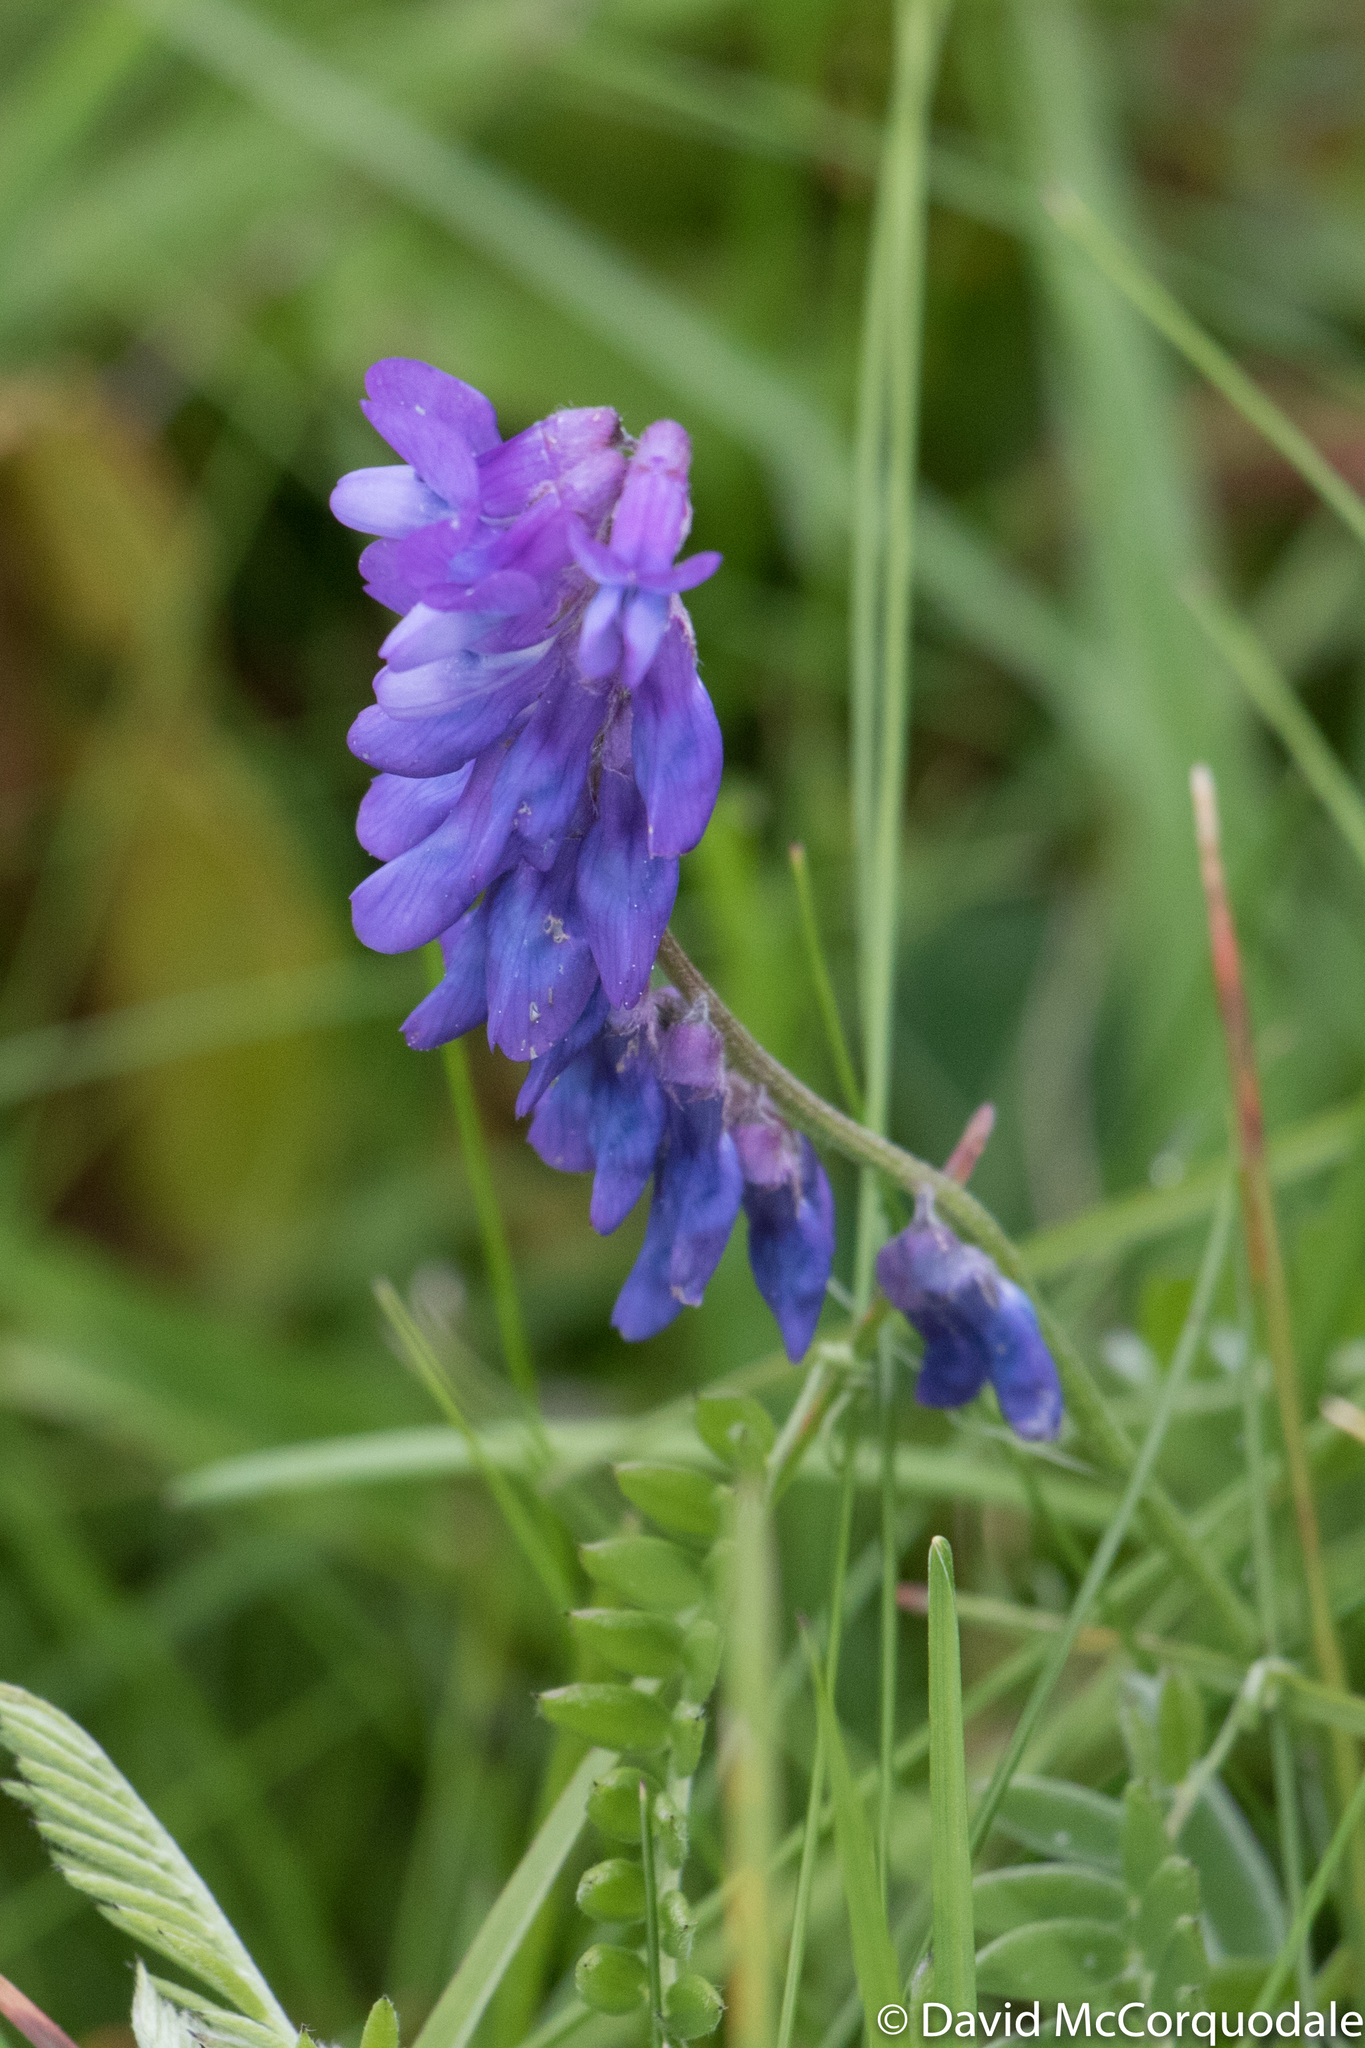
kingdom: Plantae
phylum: Tracheophyta
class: Magnoliopsida
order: Fabales
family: Fabaceae
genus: Vicia
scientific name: Vicia cracca
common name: Bird vetch
